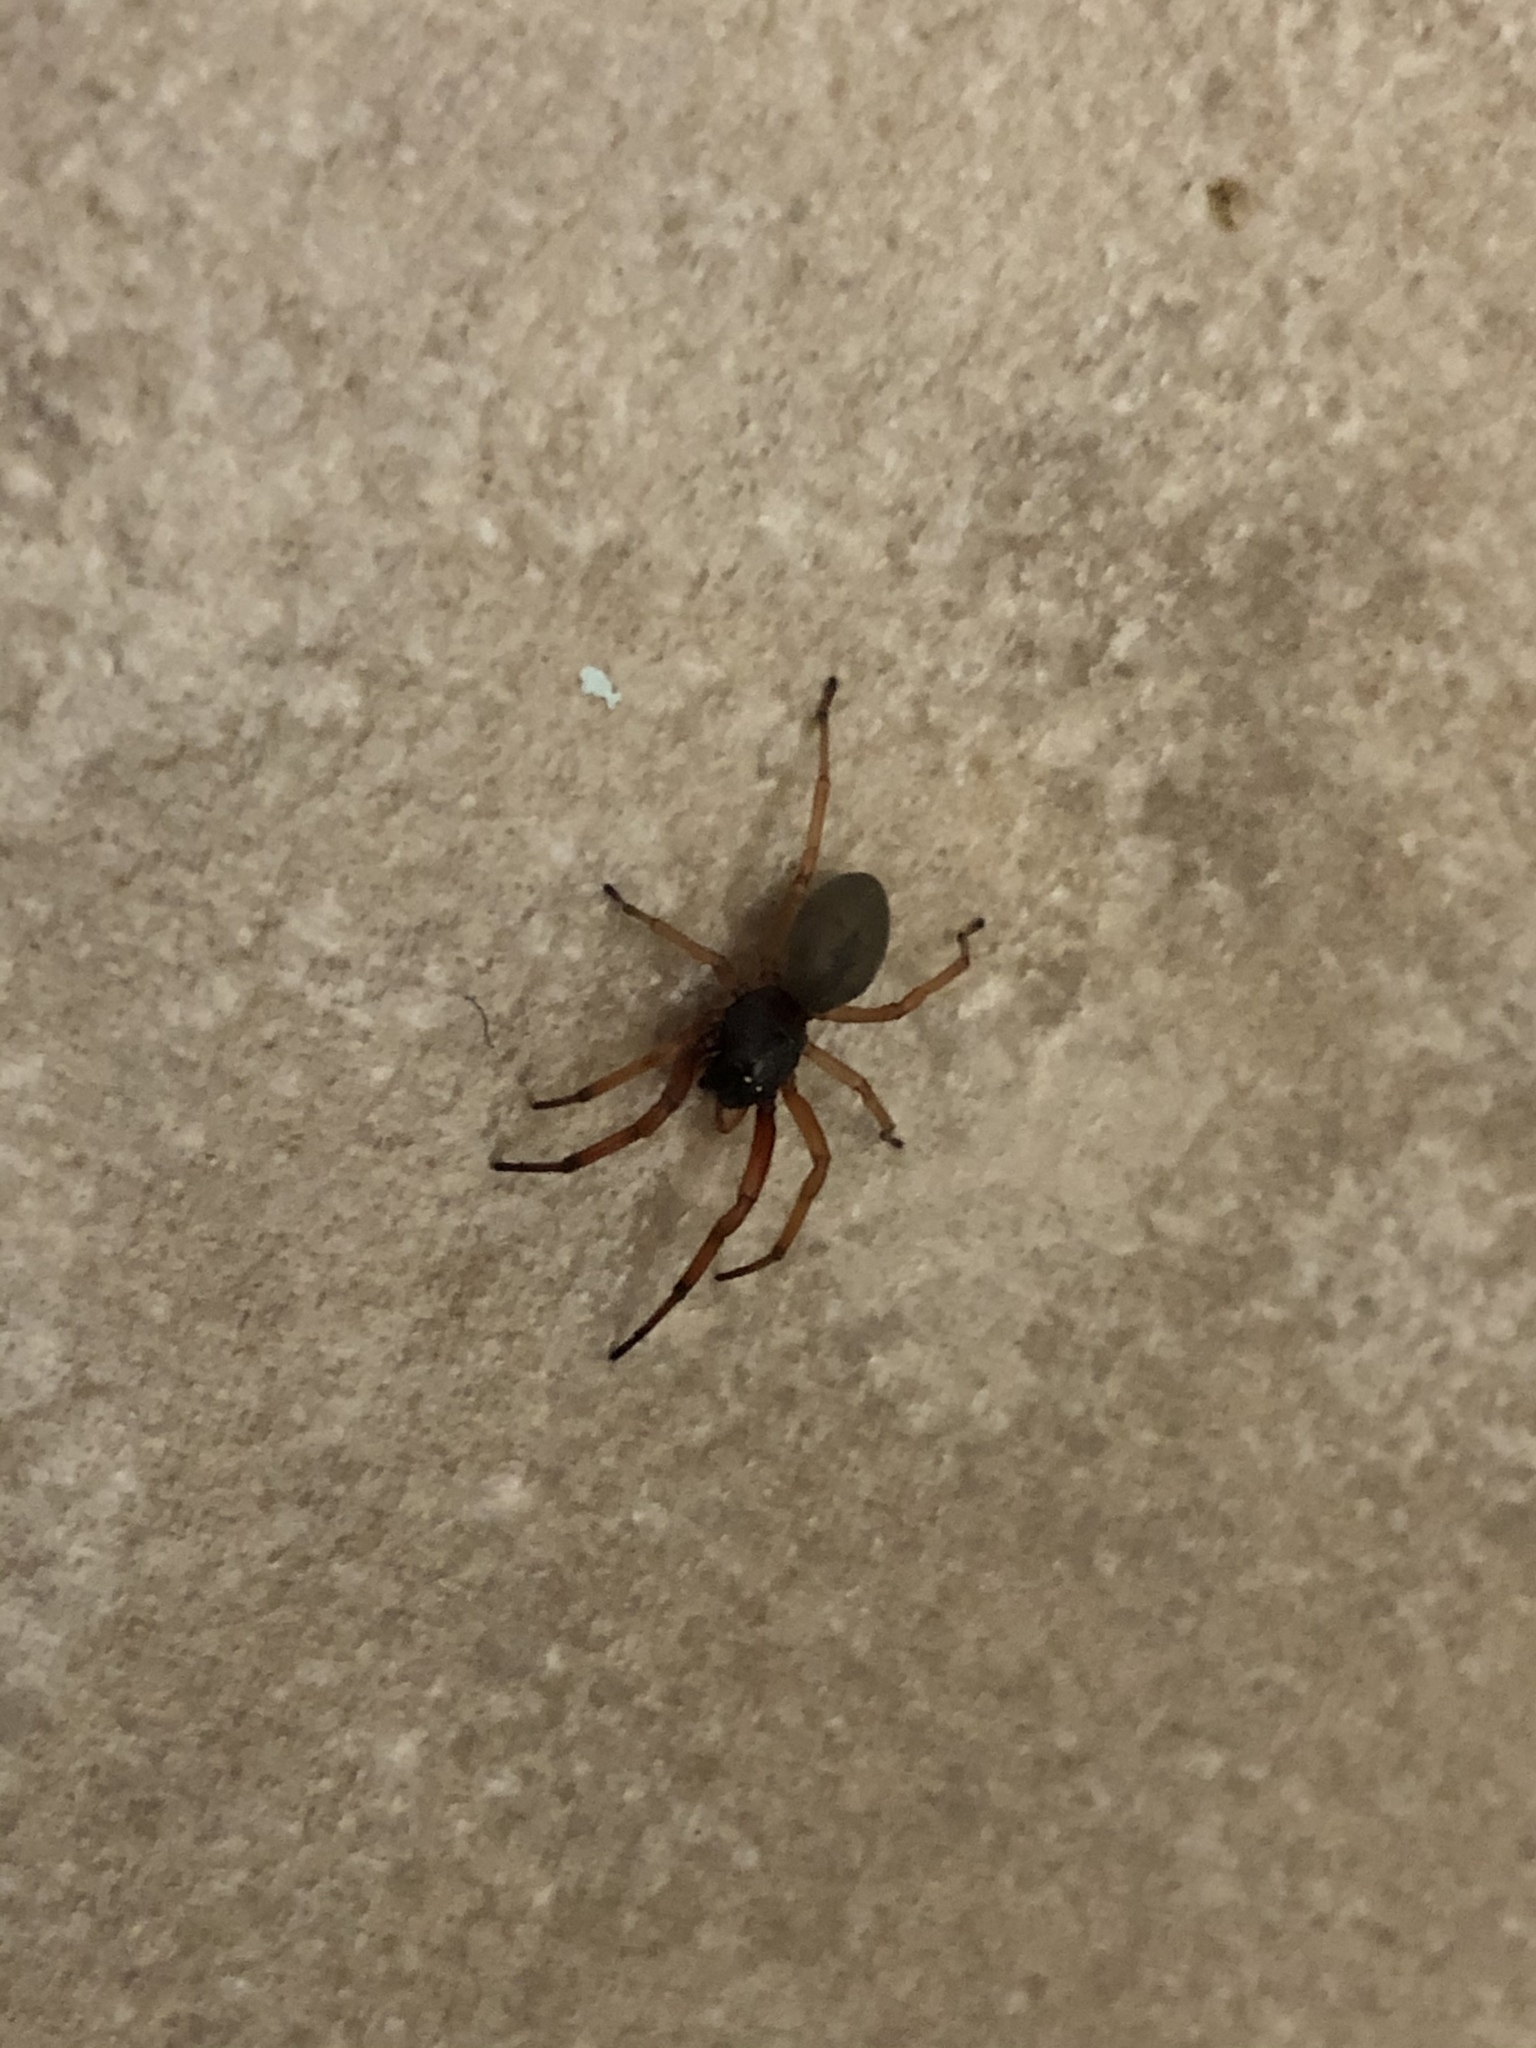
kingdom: Animalia
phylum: Arthropoda
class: Arachnida
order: Araneae
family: Trachelidae
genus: Trachelas
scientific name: Trachelas tranquillus
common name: Broad-faced sac spider
